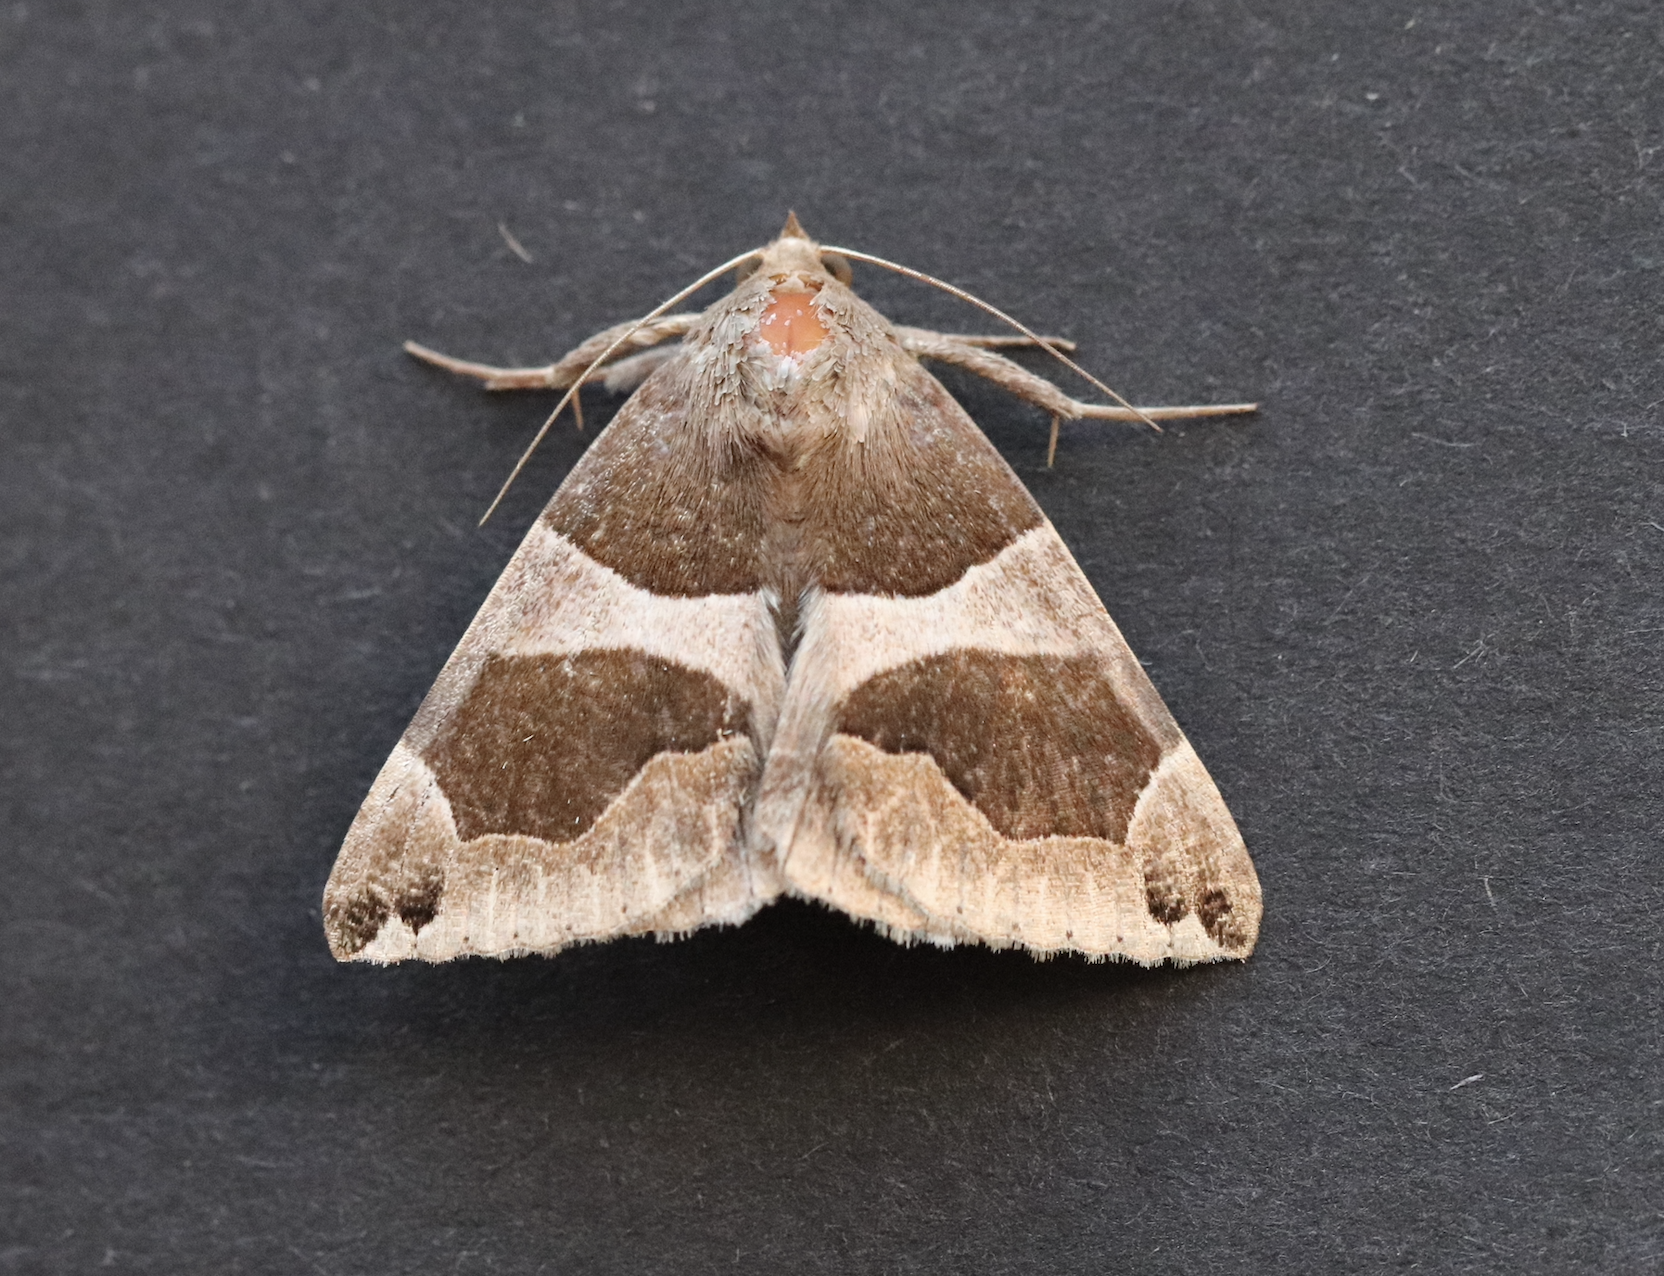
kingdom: Animalia
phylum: Arthropoda
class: Insecta
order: Lepidoptera
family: Erebidae
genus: Dysgonia
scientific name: Dysgonia algira
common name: Passenger
